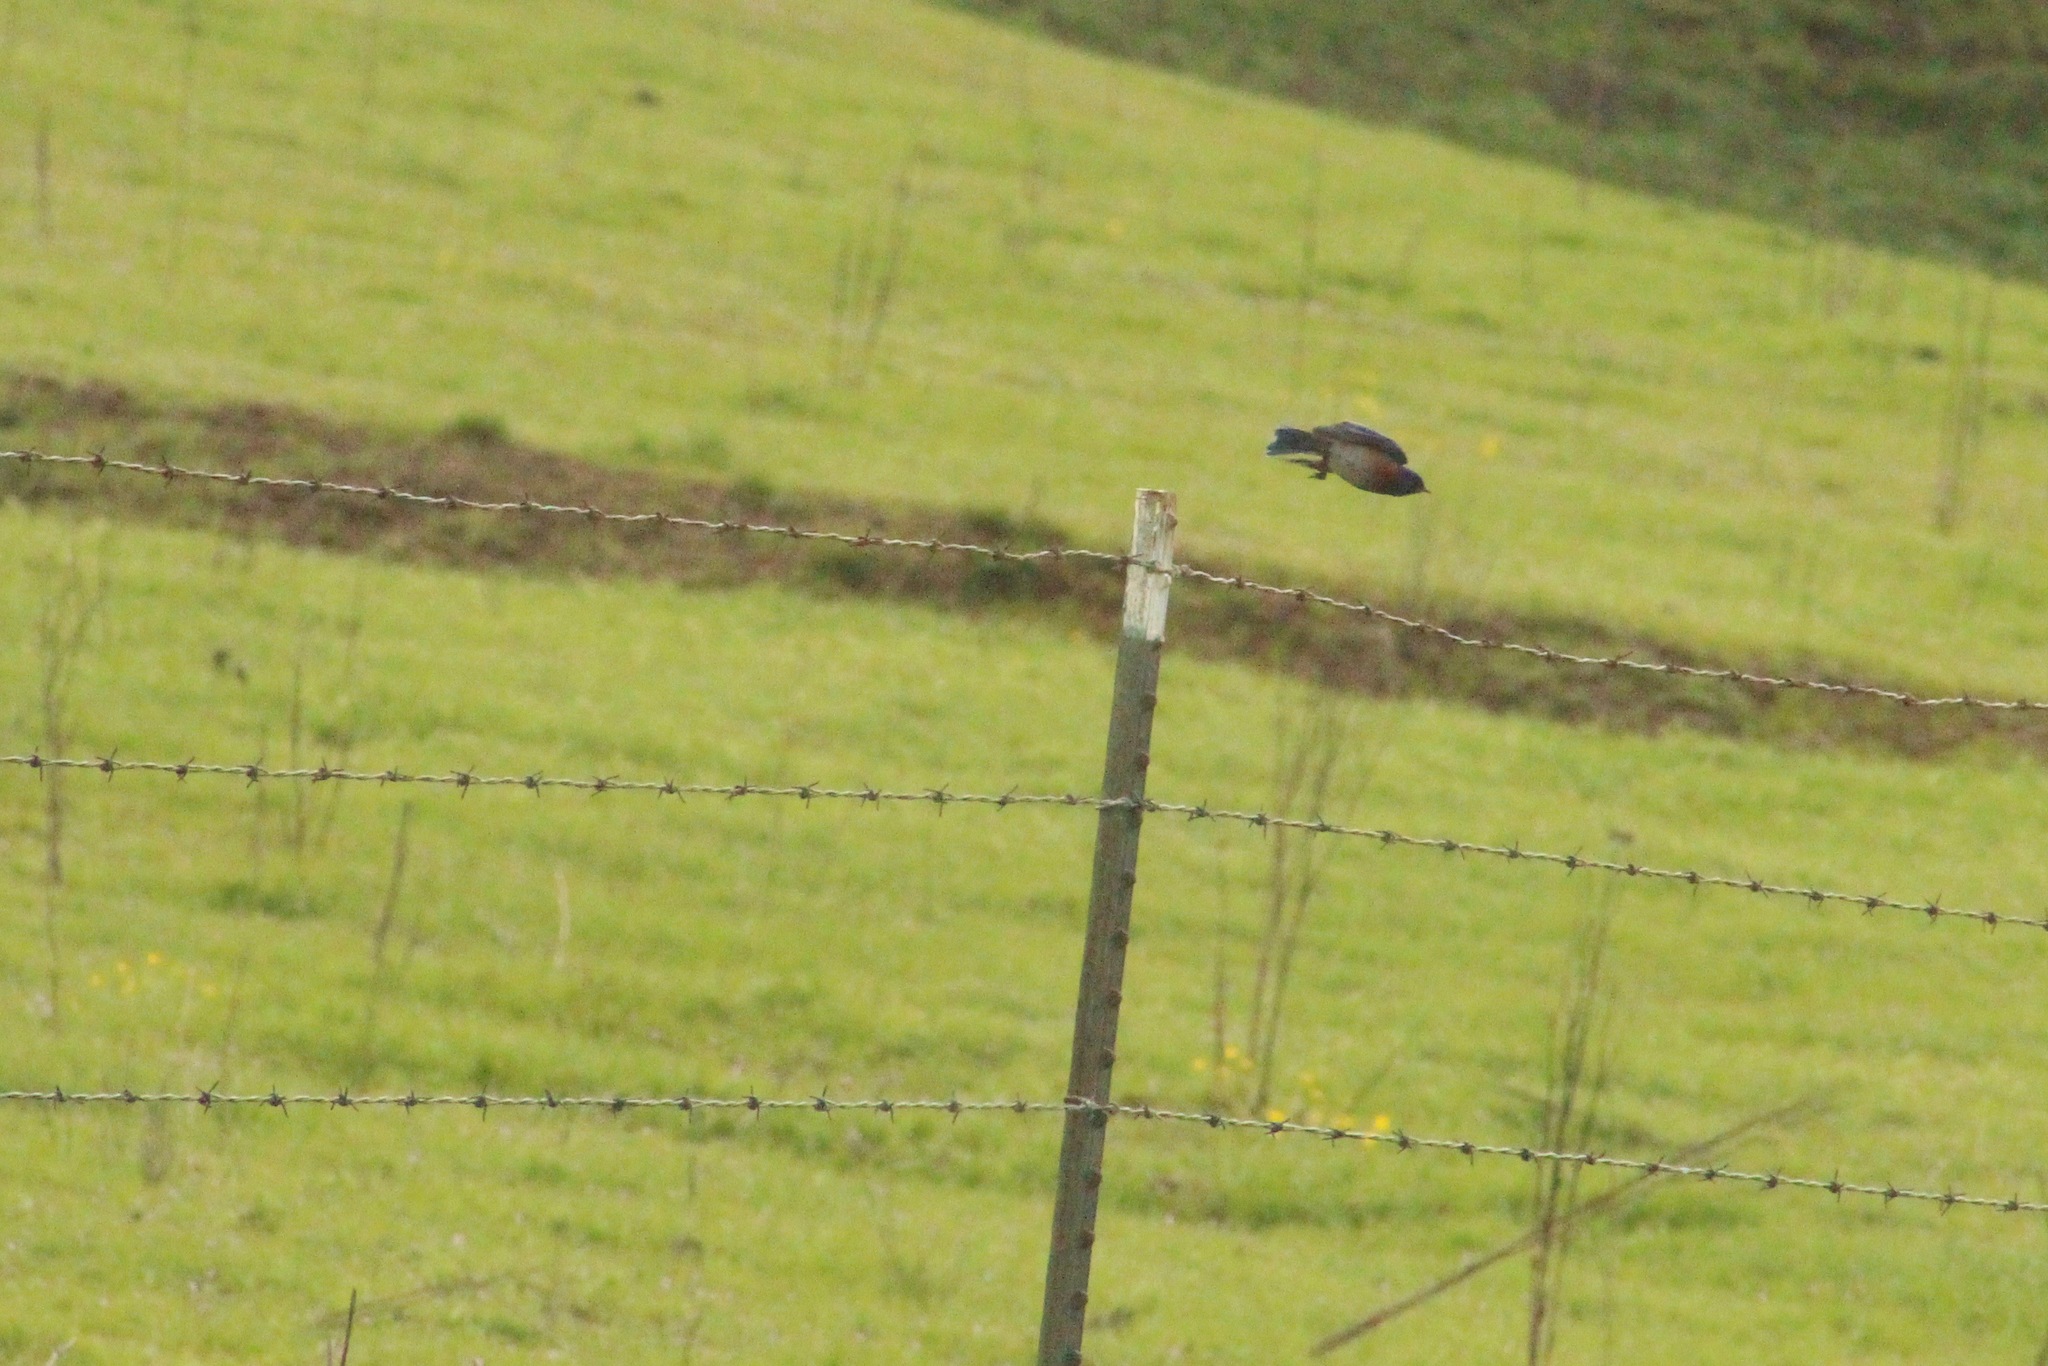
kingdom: Animalia
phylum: Chordata
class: Aves
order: Passeriformes
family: Turdidae
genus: Sialia
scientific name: Sialia mexicana
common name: Western bluebird
